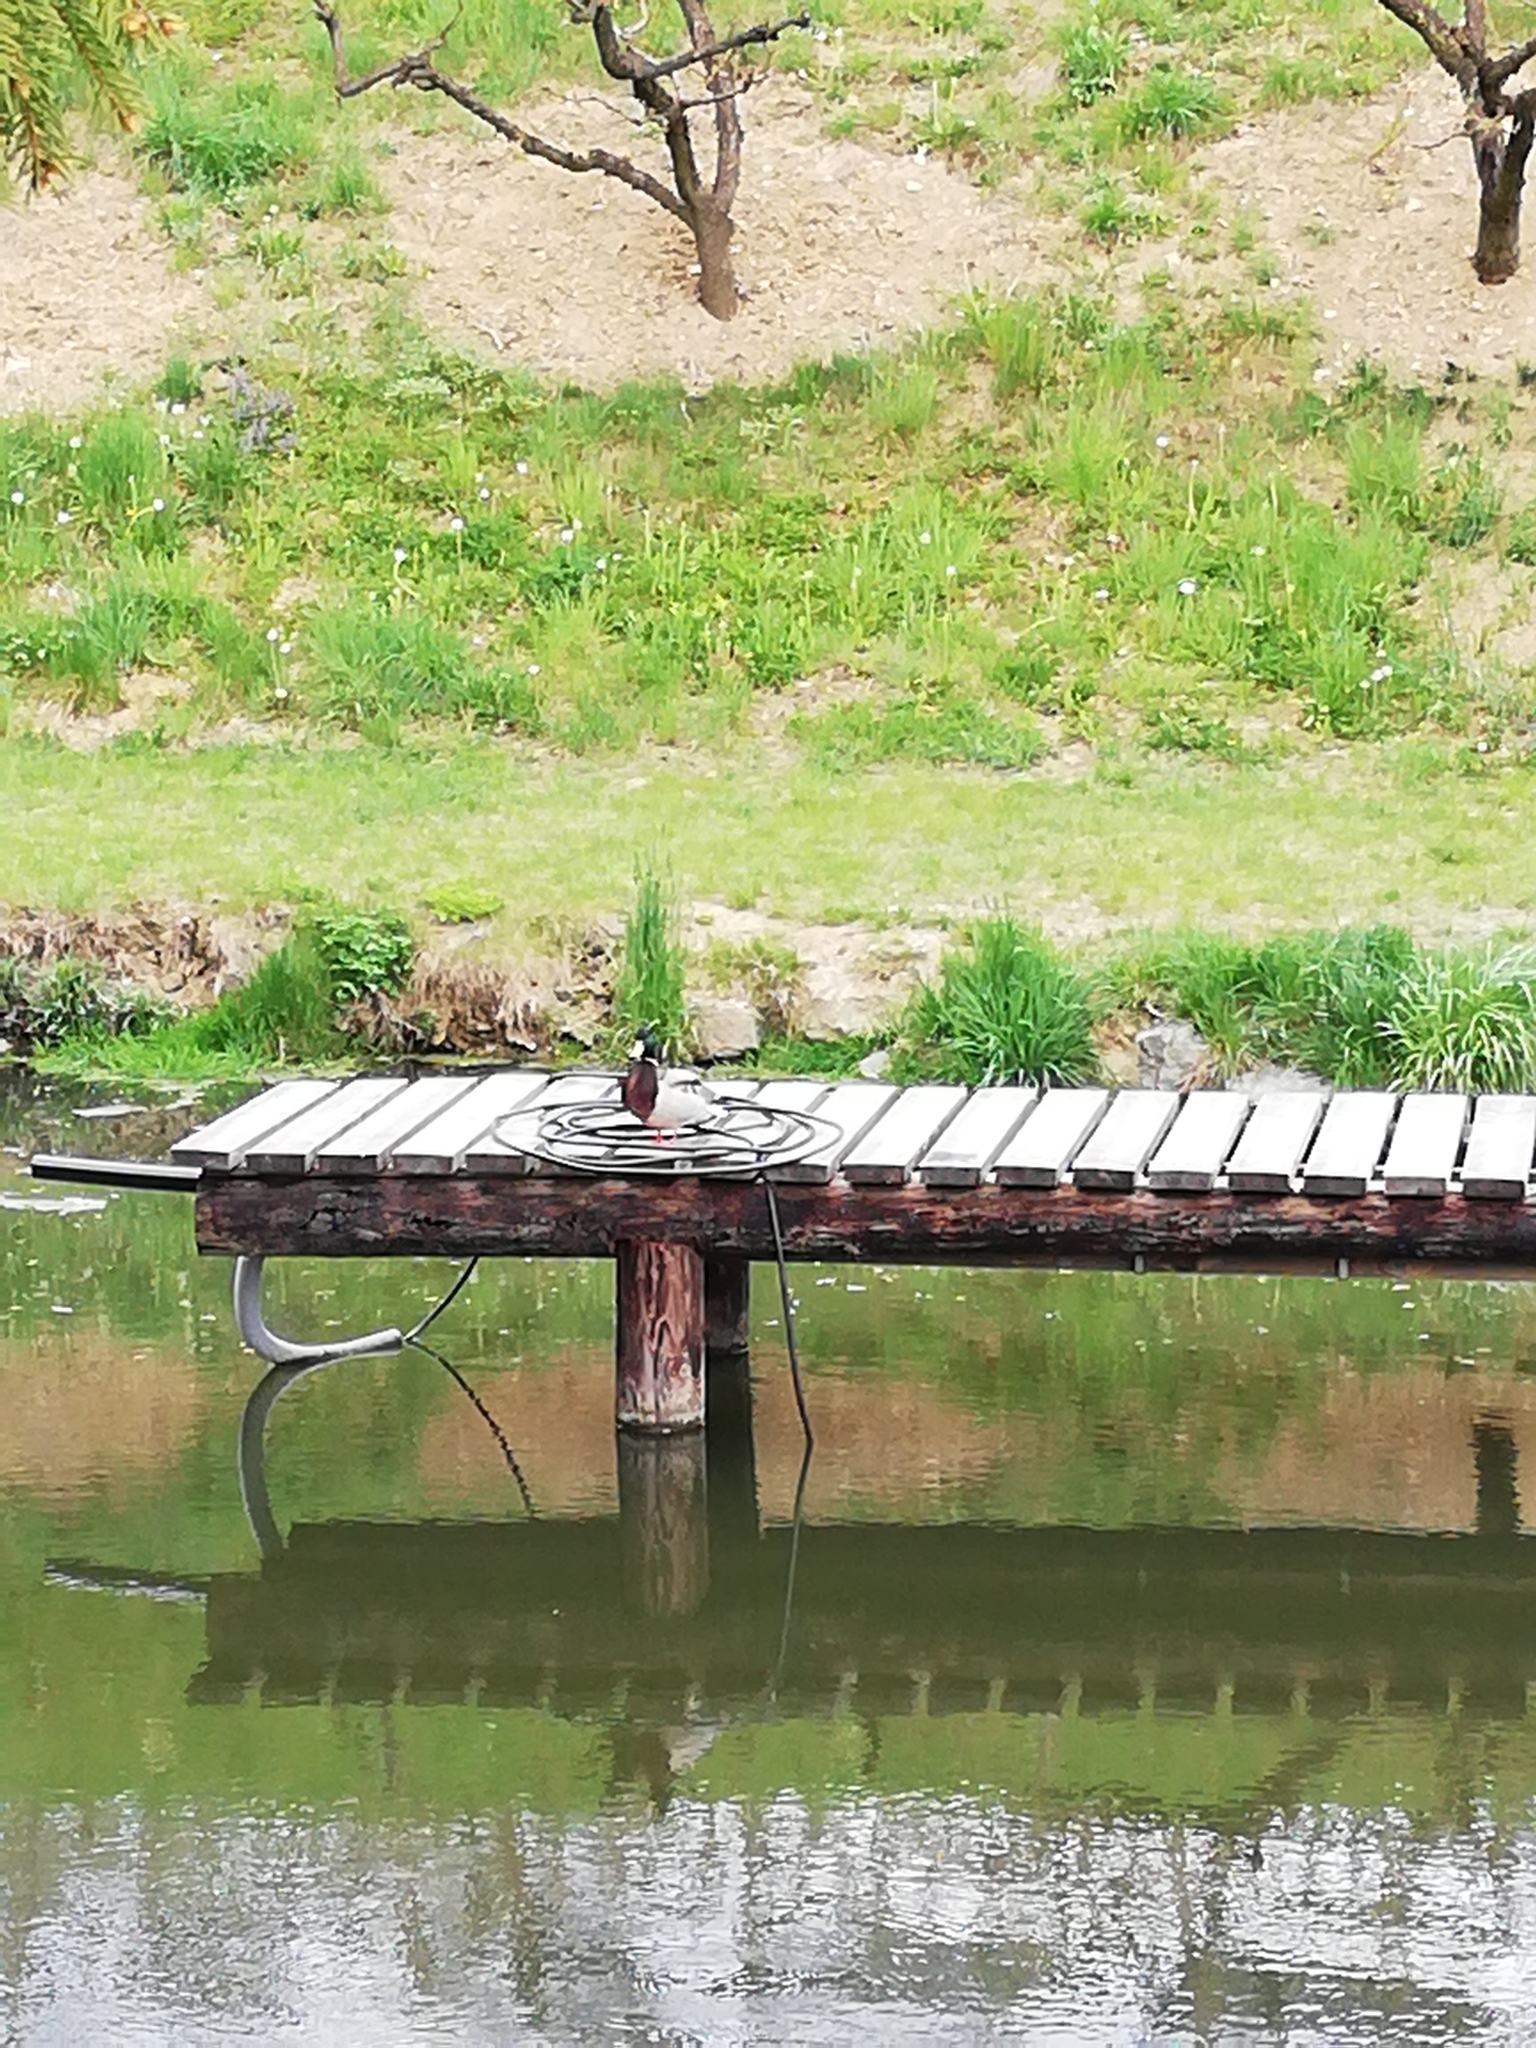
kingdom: Animalia
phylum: Chordata
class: Aves
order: Anseriformes
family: Anatidae
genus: Anas
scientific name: Anas platyrhynchos
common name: Mallard
